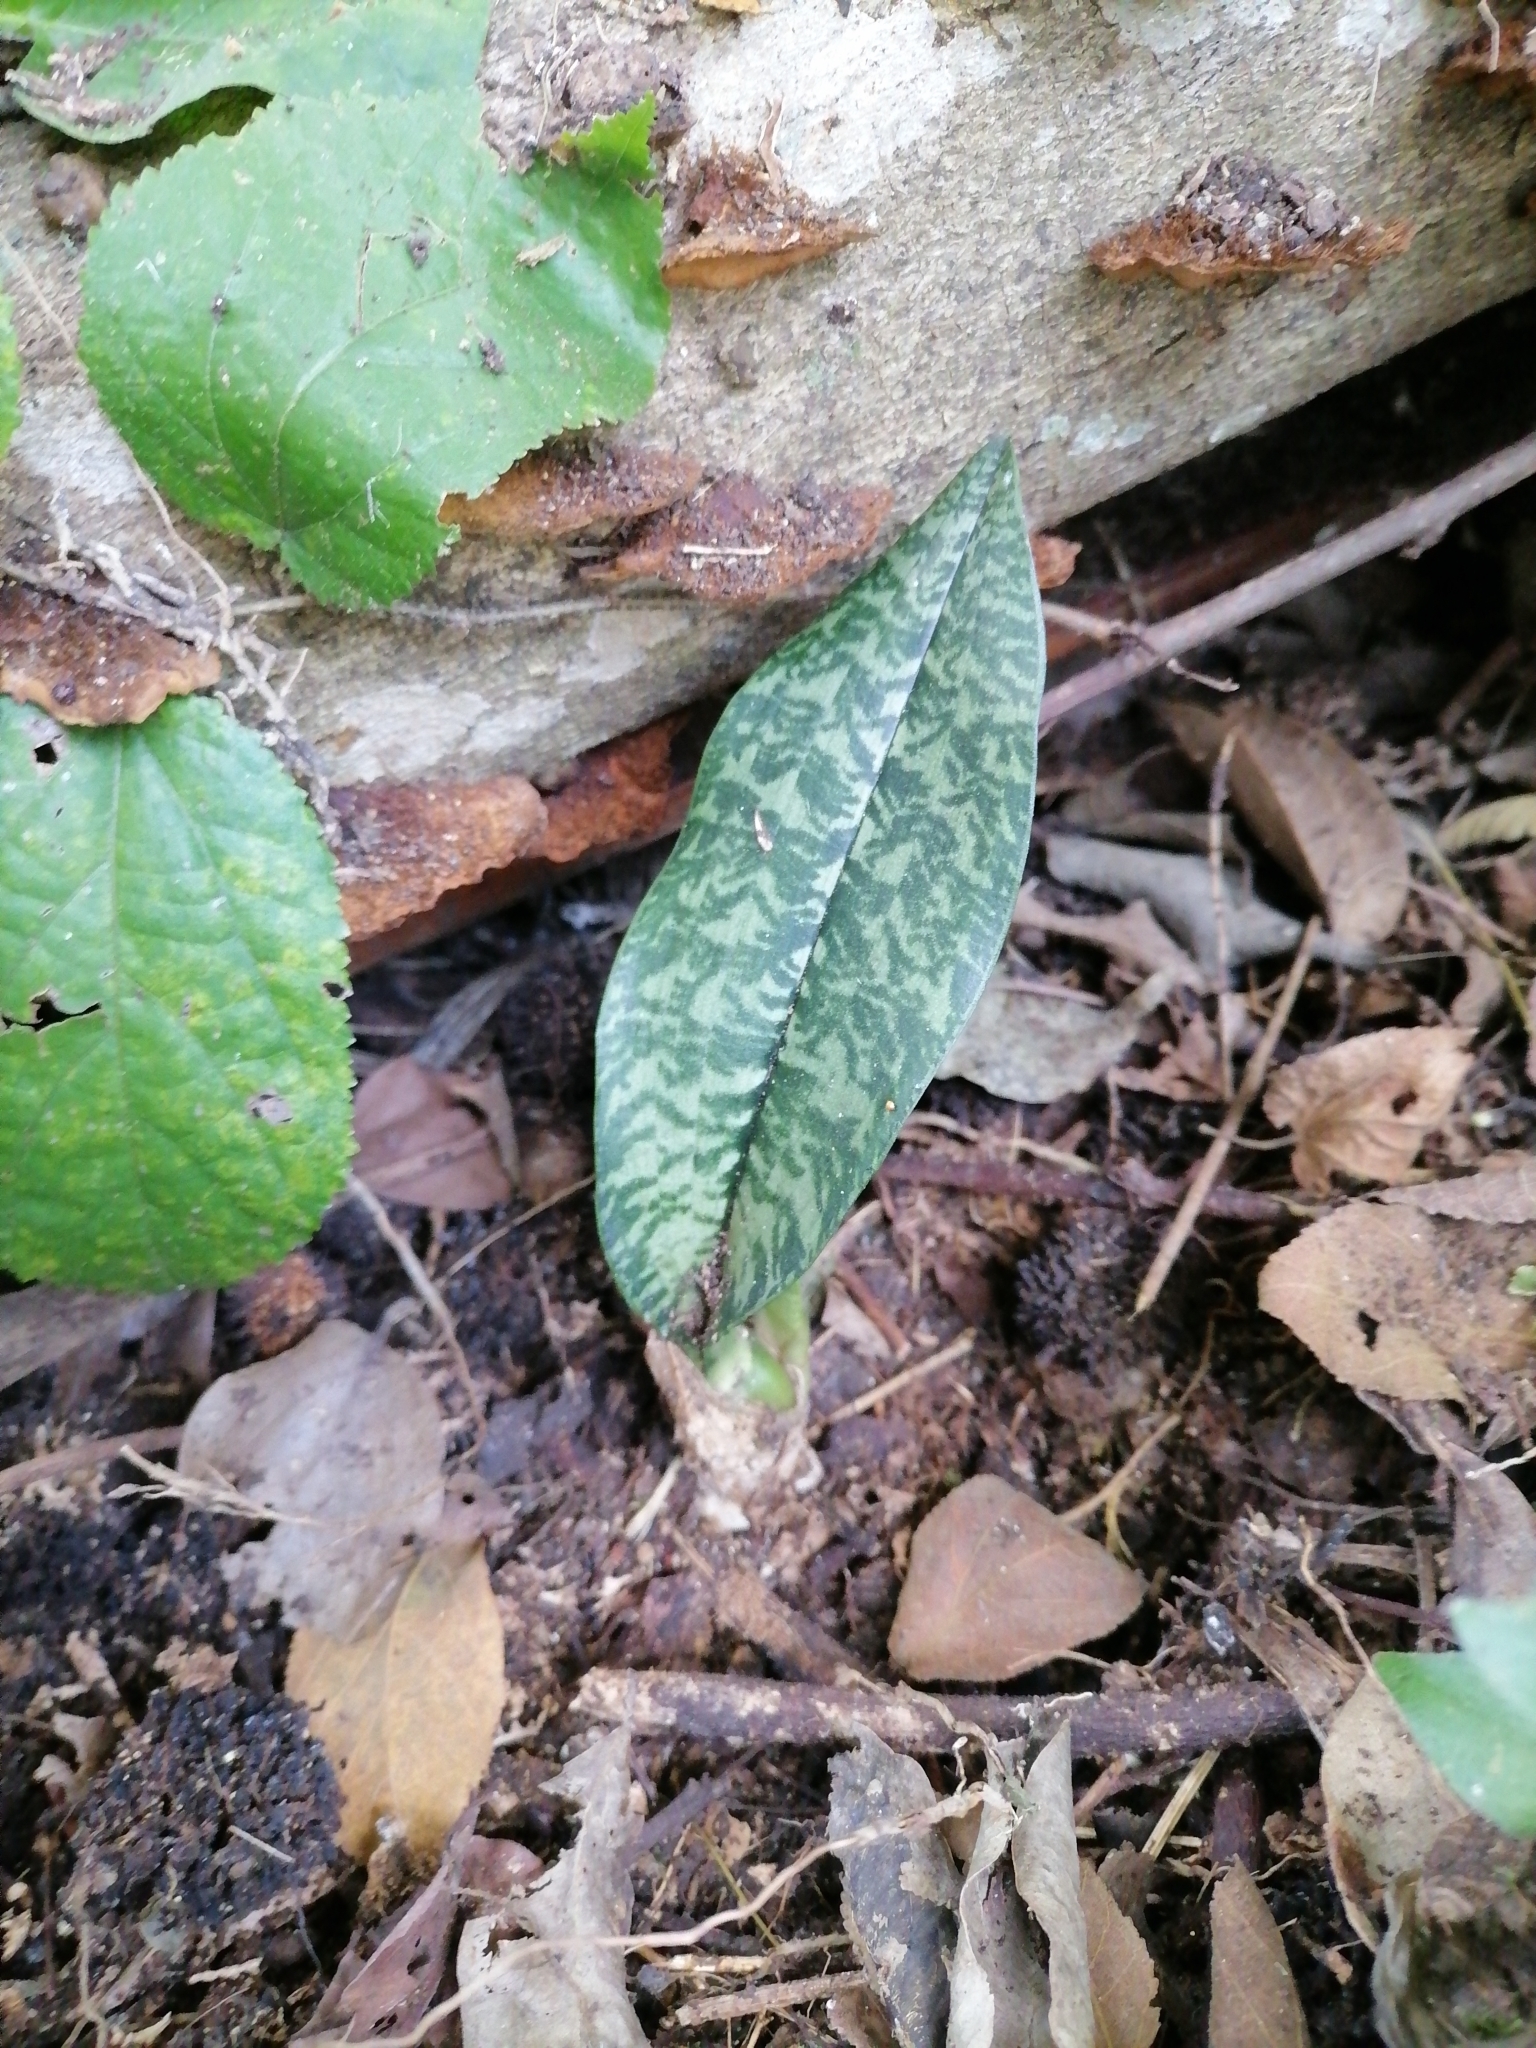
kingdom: Plantae
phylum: Tracheophyta
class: Liliopsida
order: Asparagales
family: Orchidaceae
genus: Eulophia
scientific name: Eulophia maculata
